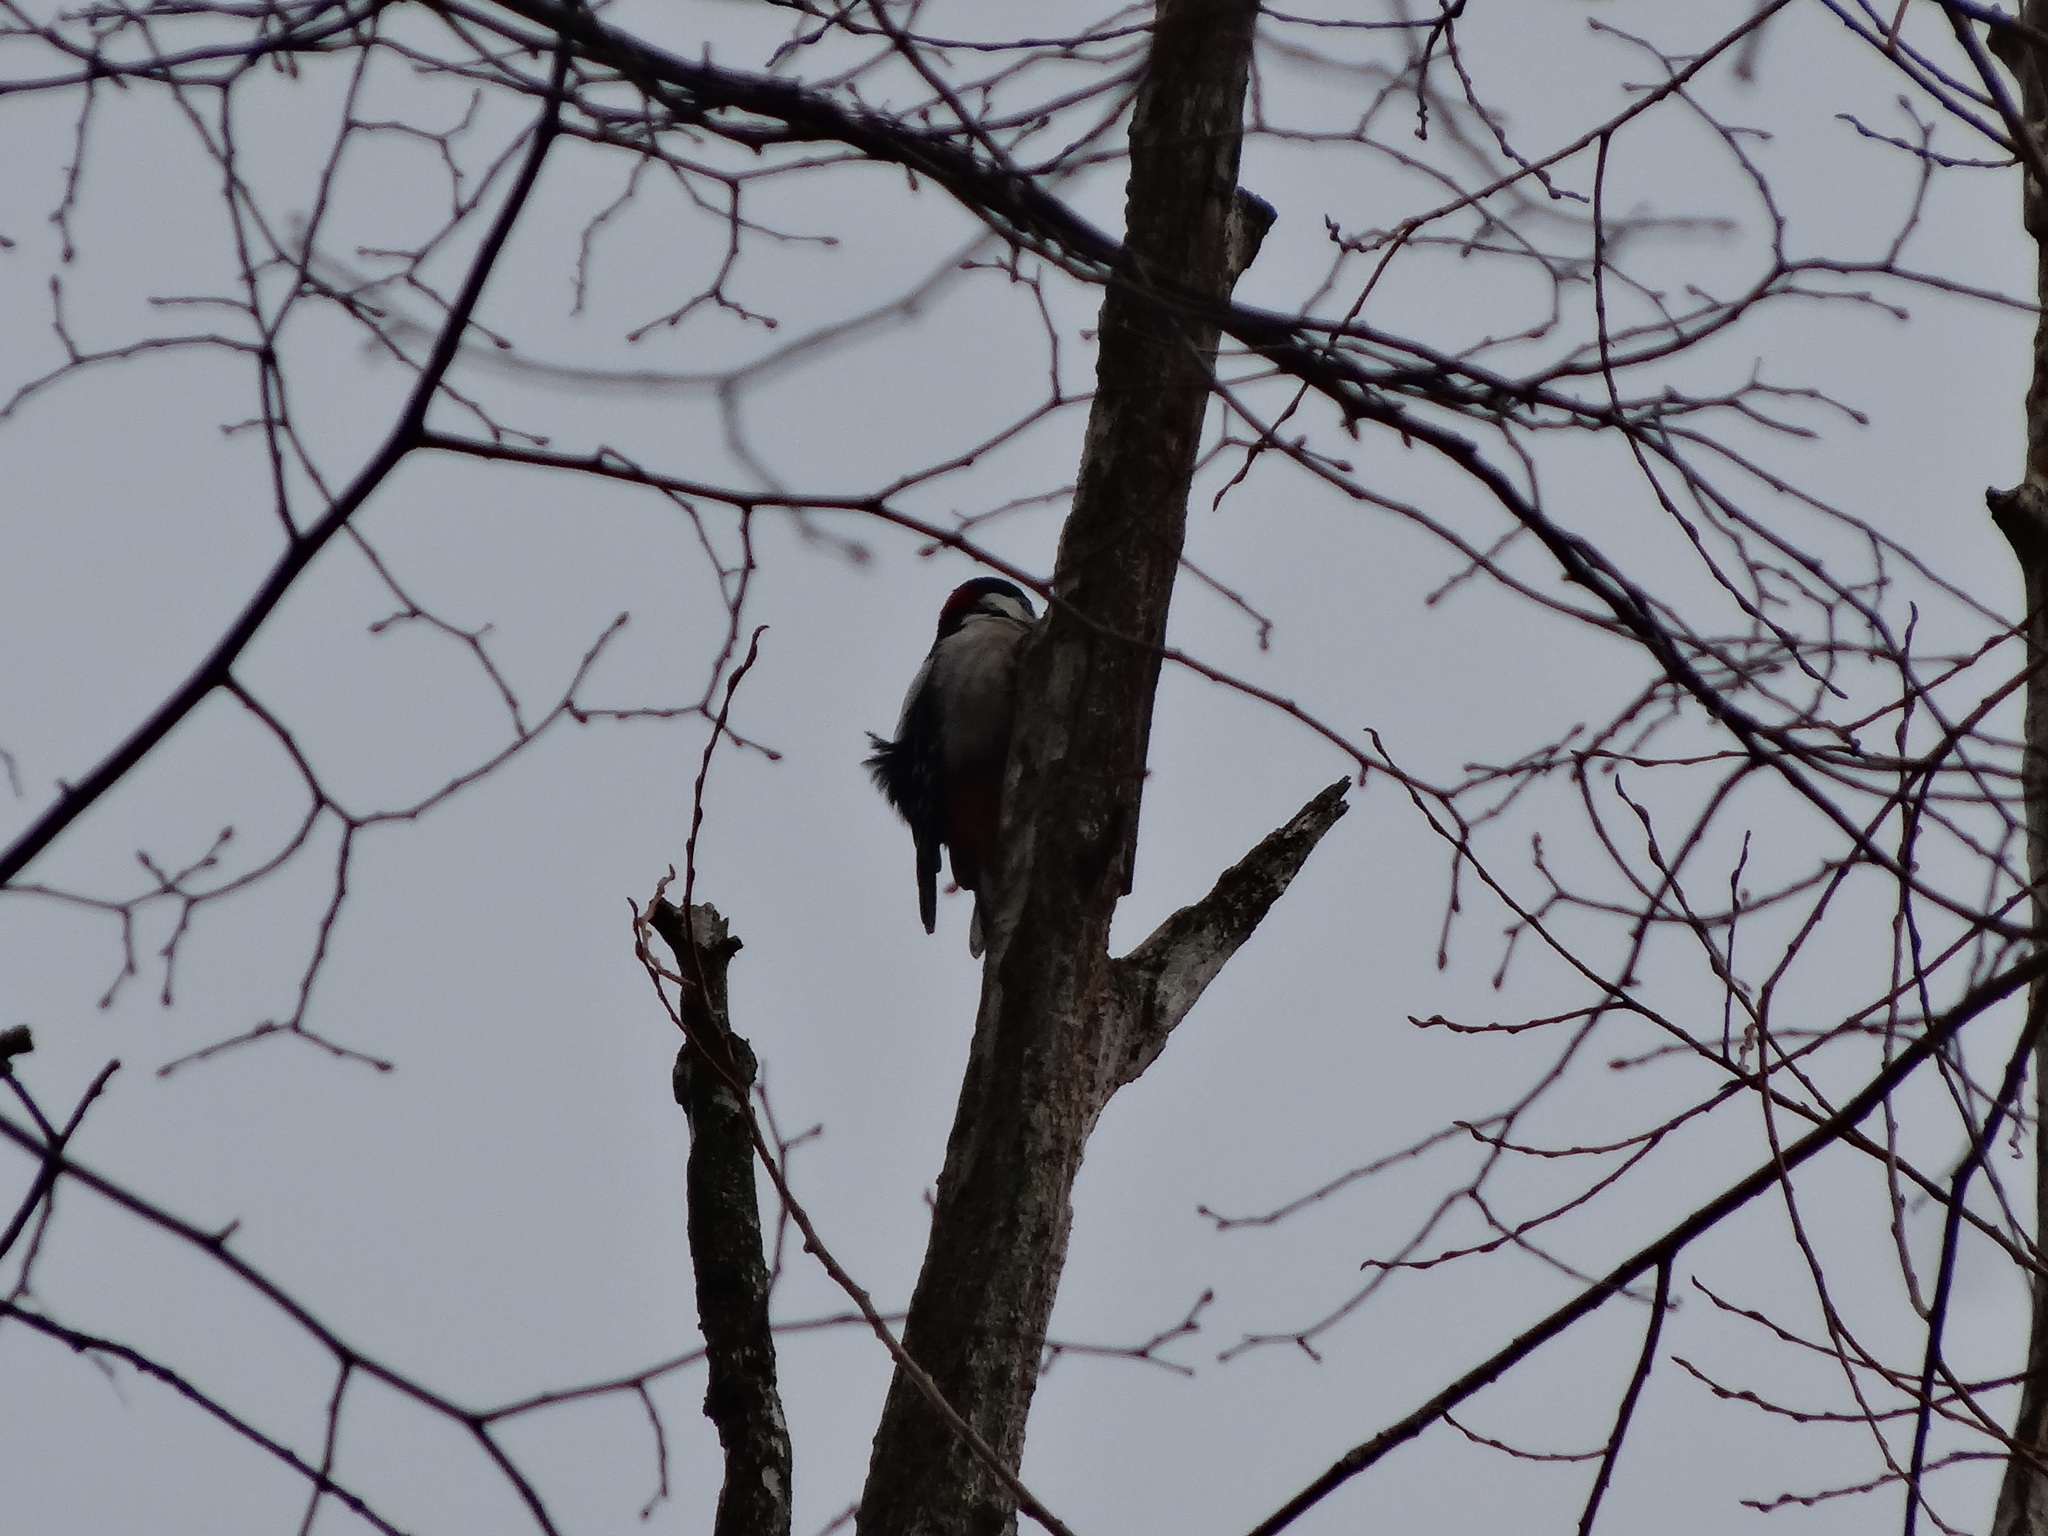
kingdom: Animalia
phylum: Chordata
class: Aves
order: Piciformes
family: Picidae
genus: Dendrocopos
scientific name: Dendrocopos major
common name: Great spotted woodpecker
